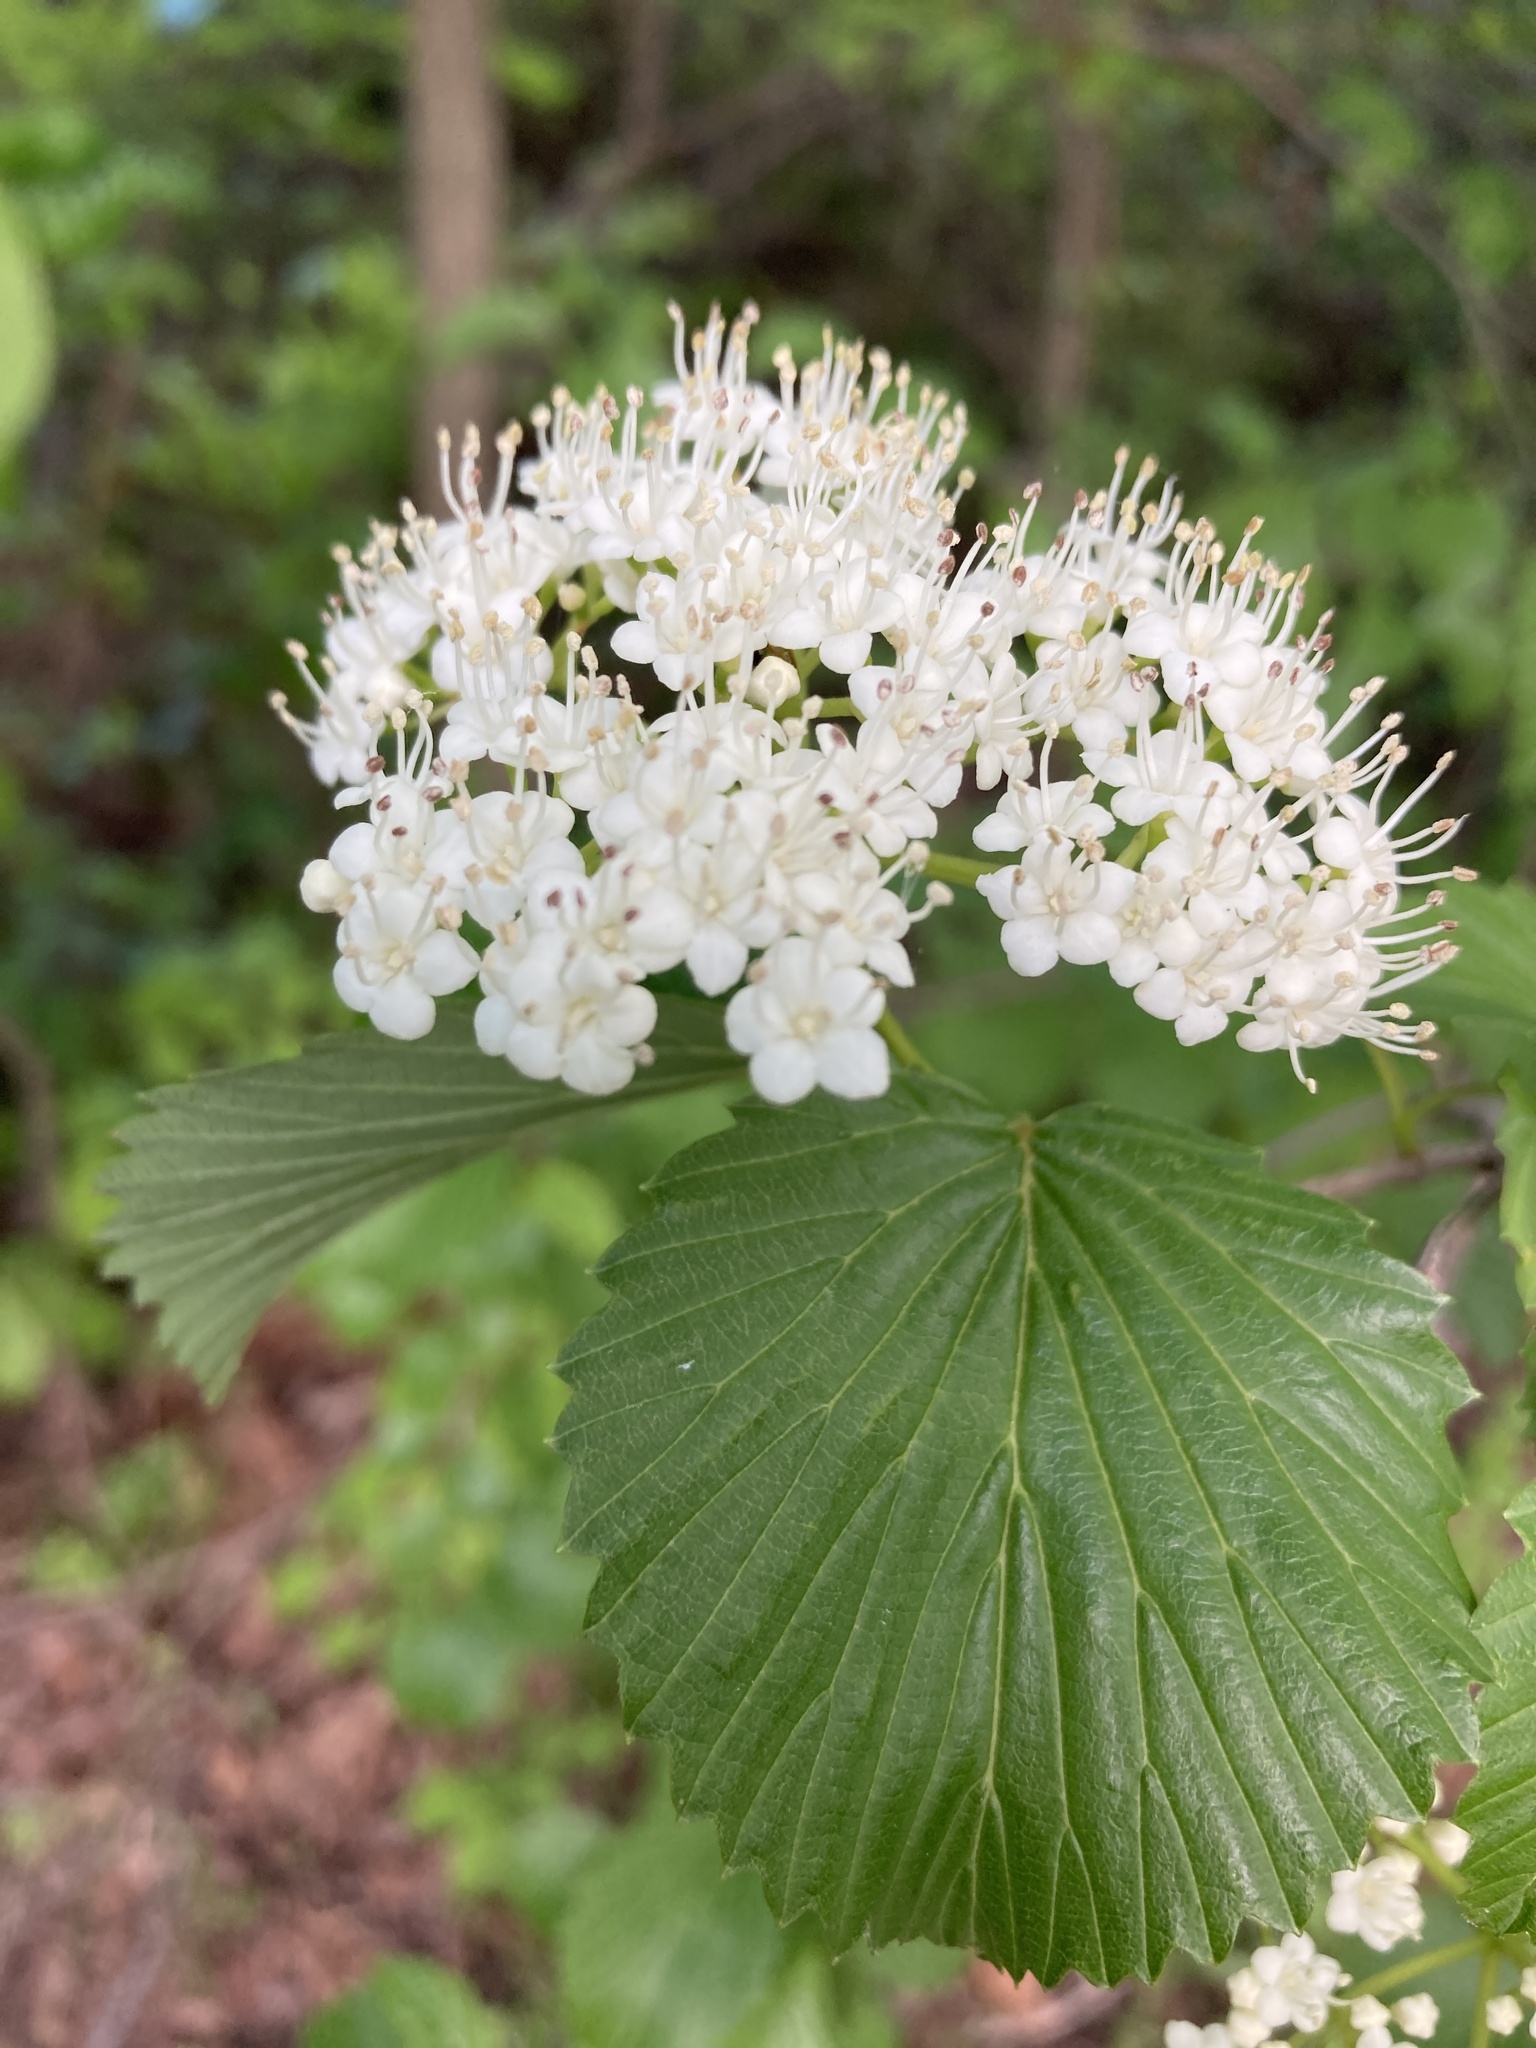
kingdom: Plantae
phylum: Tracheophyta
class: Magnoliopsida
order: Dipsacales
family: Viburnaceae
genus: Viburnum
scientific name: Viburnum dentatum
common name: Arrow-wood
